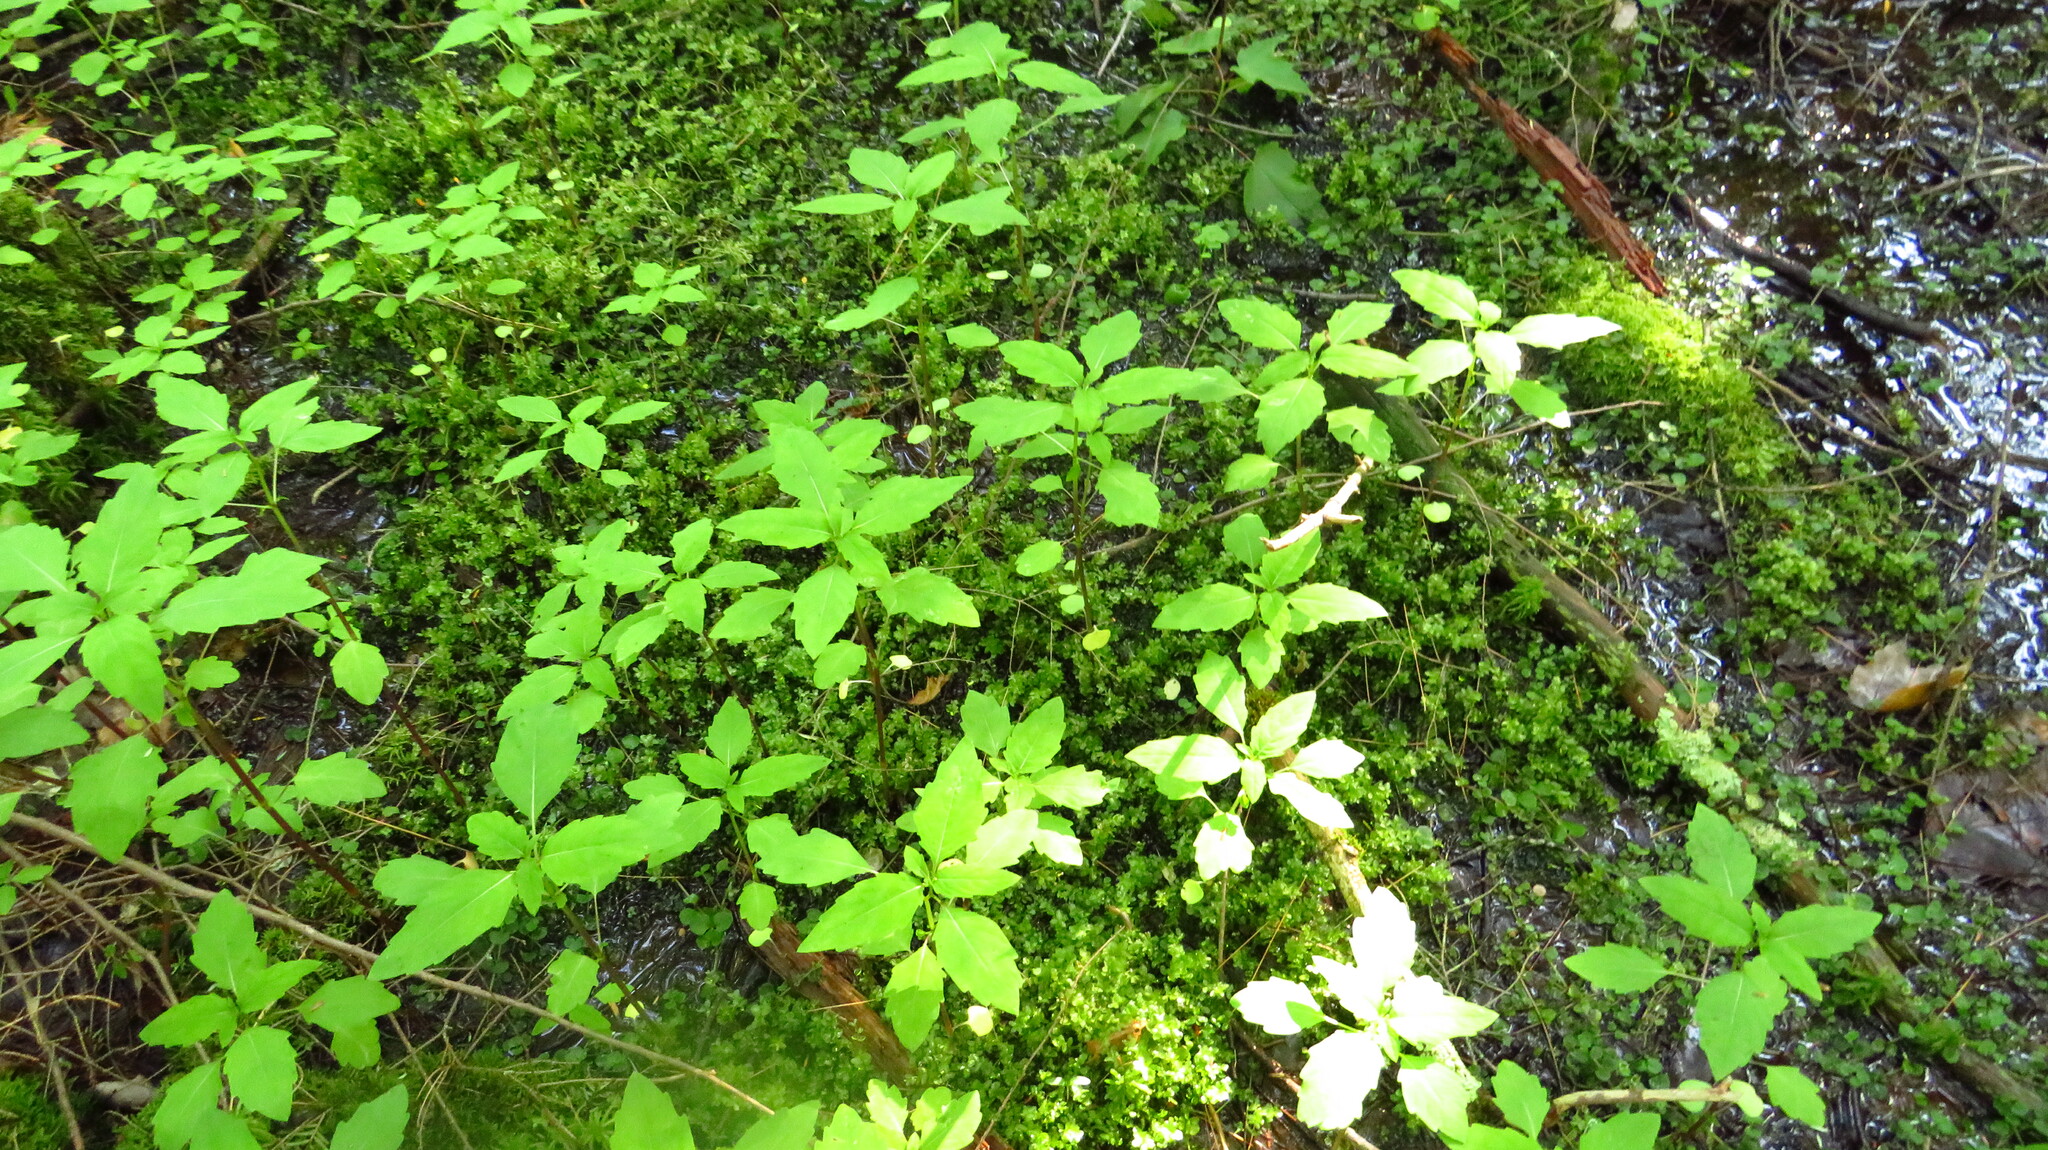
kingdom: Plantae
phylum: Tracheophyta
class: Magnoliopsida
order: Ericales
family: Balsaminaceae
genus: Impatiens
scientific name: Impatiens
